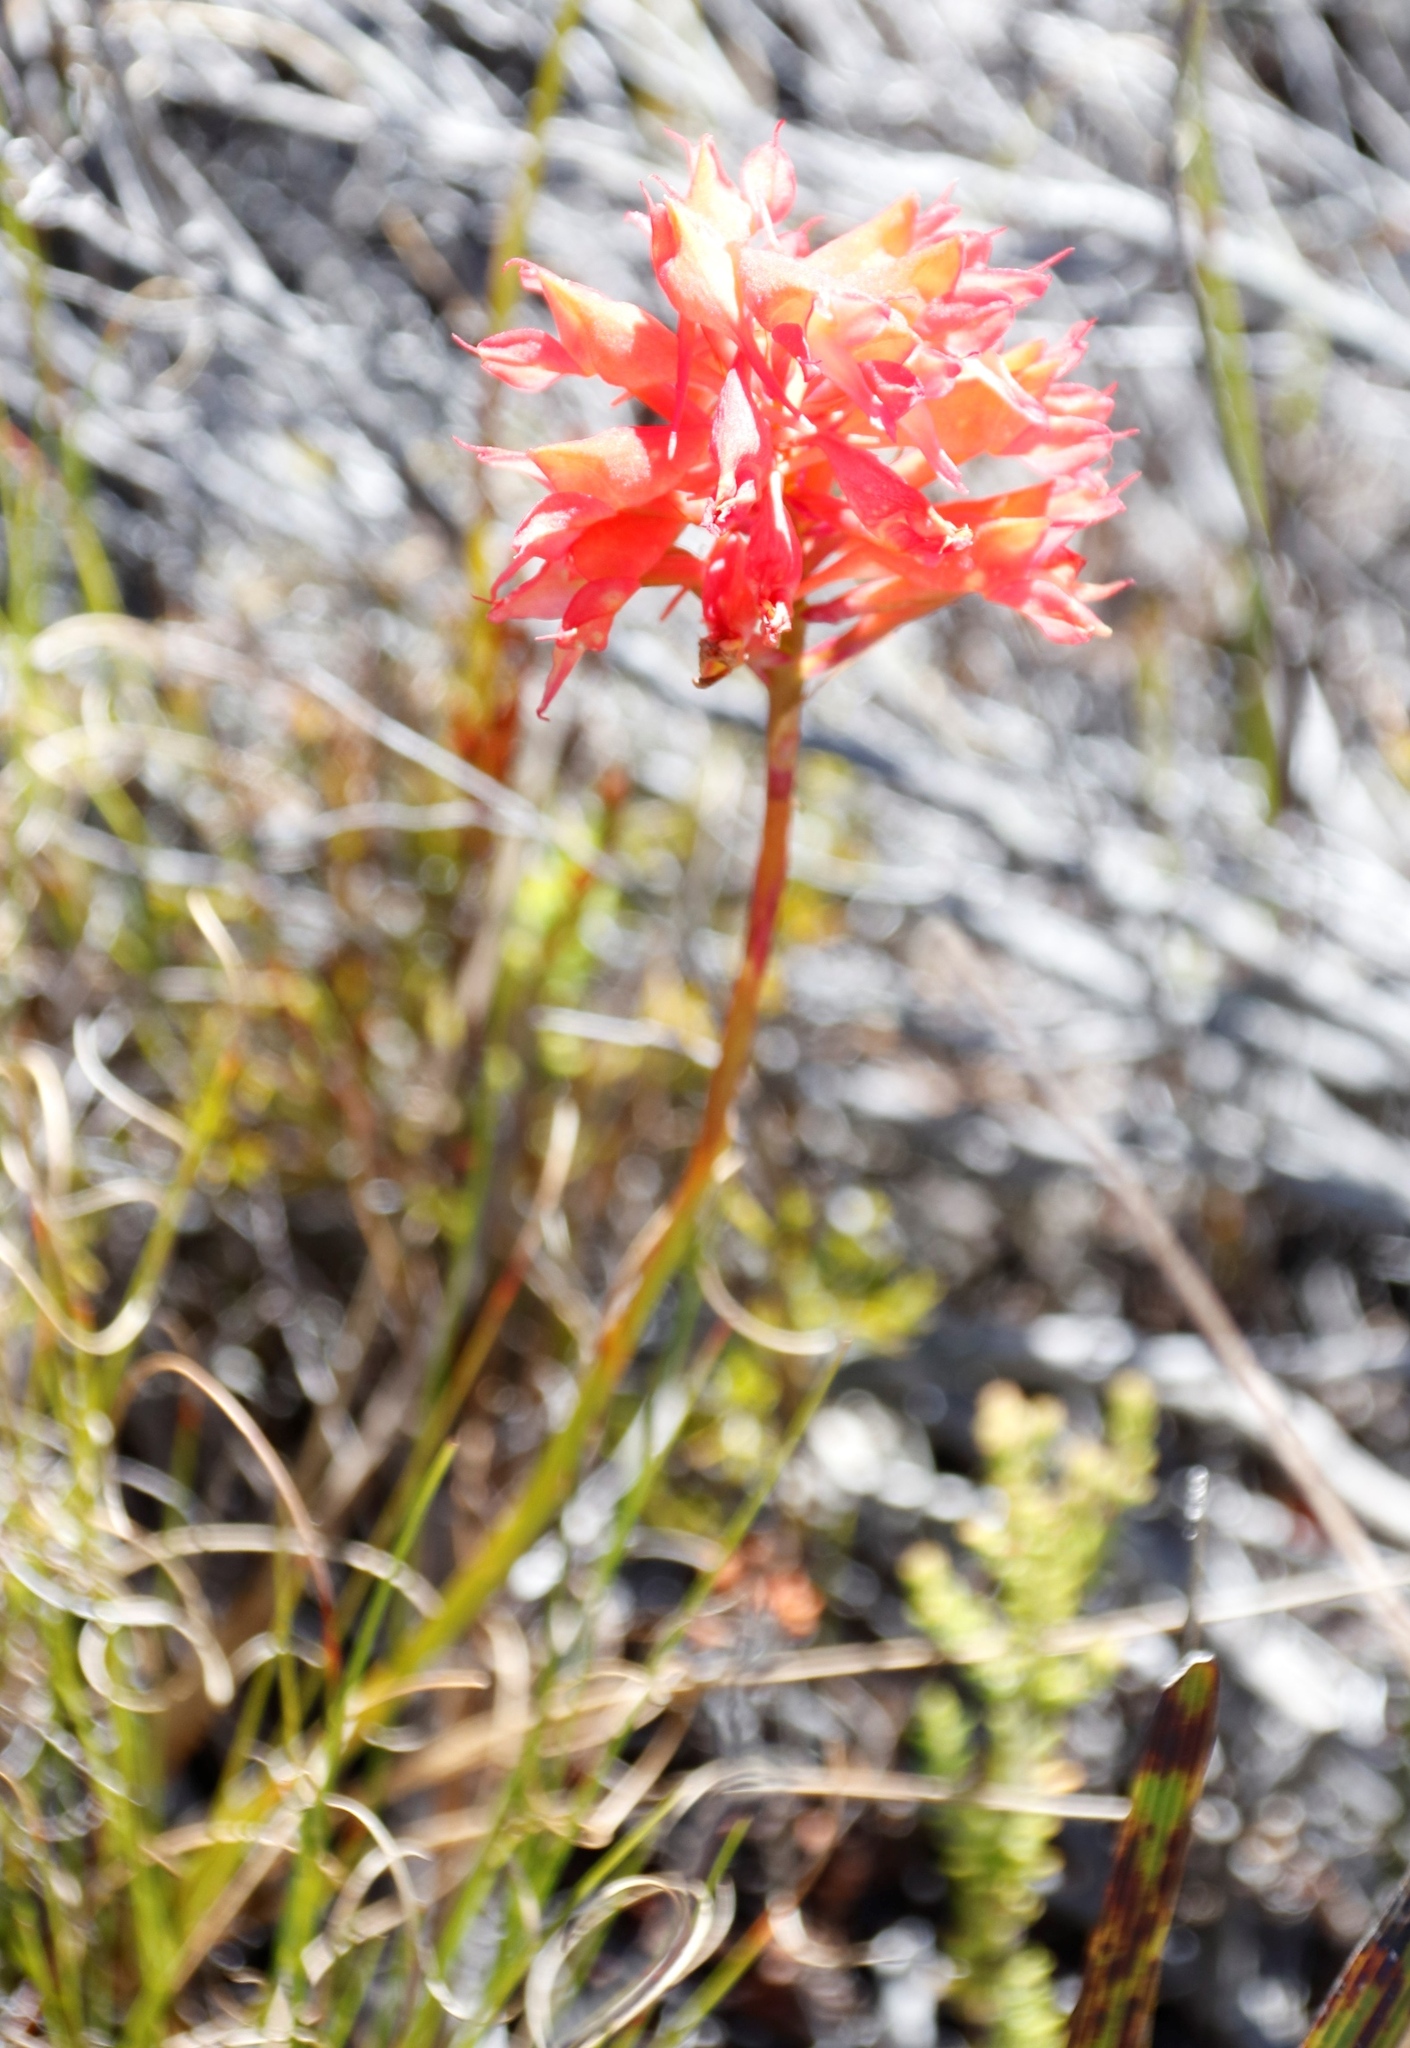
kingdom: Plantae
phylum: Tracheophyta
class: Liliopsida
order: Asparagales
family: Orchidaceae
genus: Disa
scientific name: Disa ferruginea
